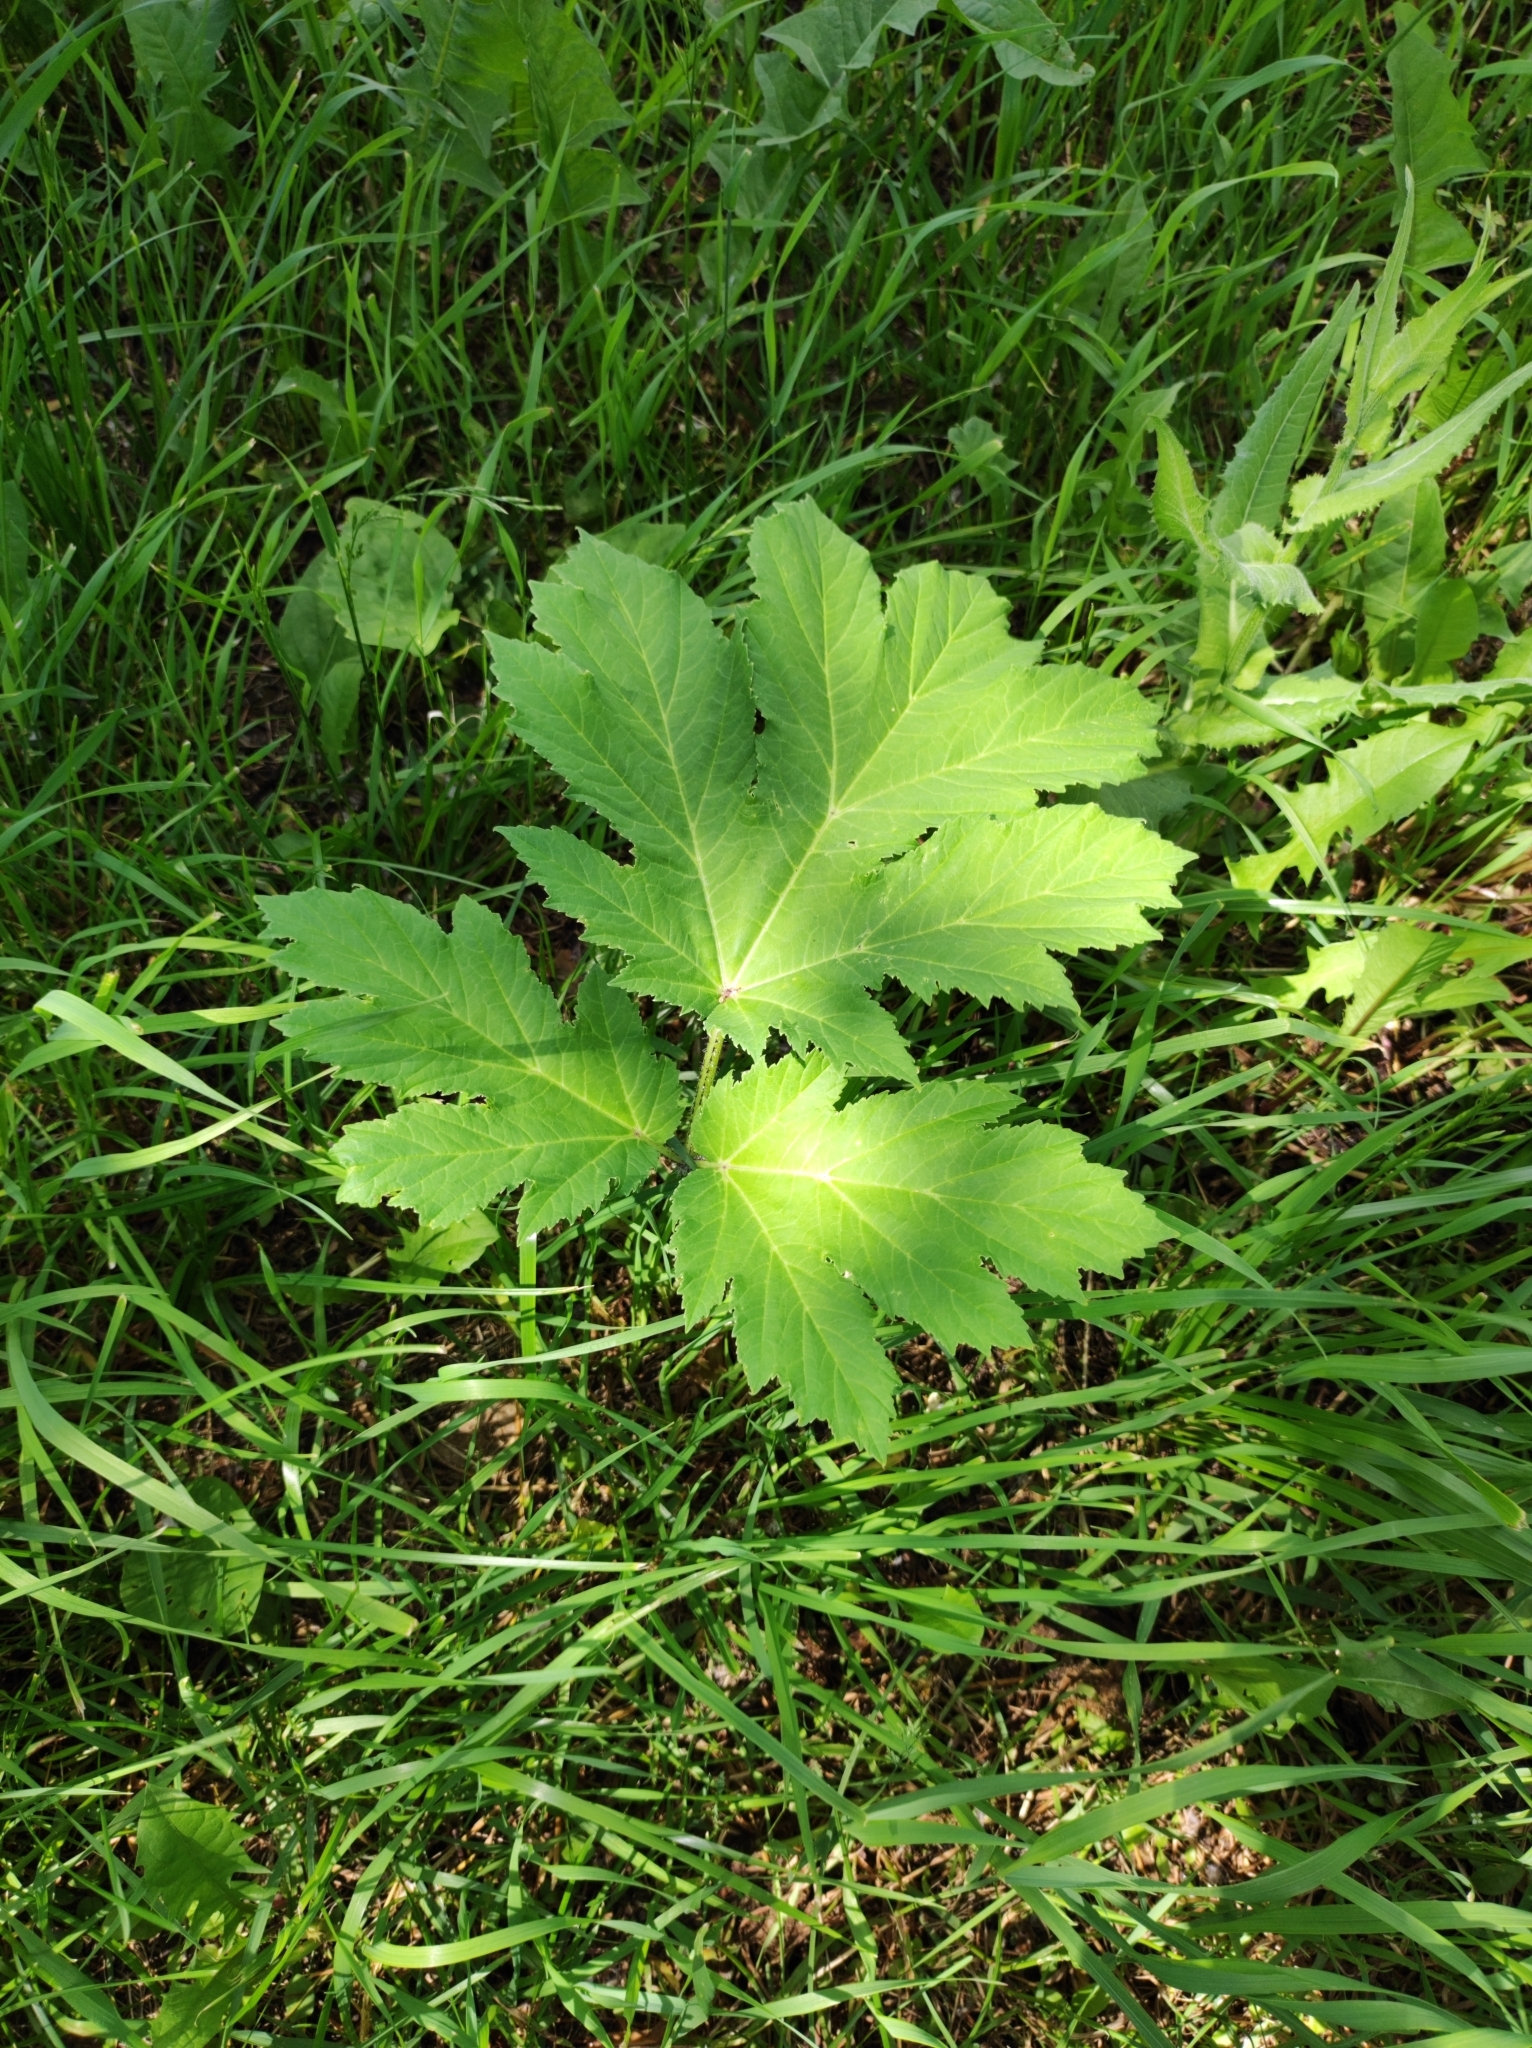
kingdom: Plantae
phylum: Tracheophyta
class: Magnoliopsida
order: Apiales
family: Apiaceae
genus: Heracleum
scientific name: Heracleum sosnowskyi
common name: Sosnowsky's hogweed
